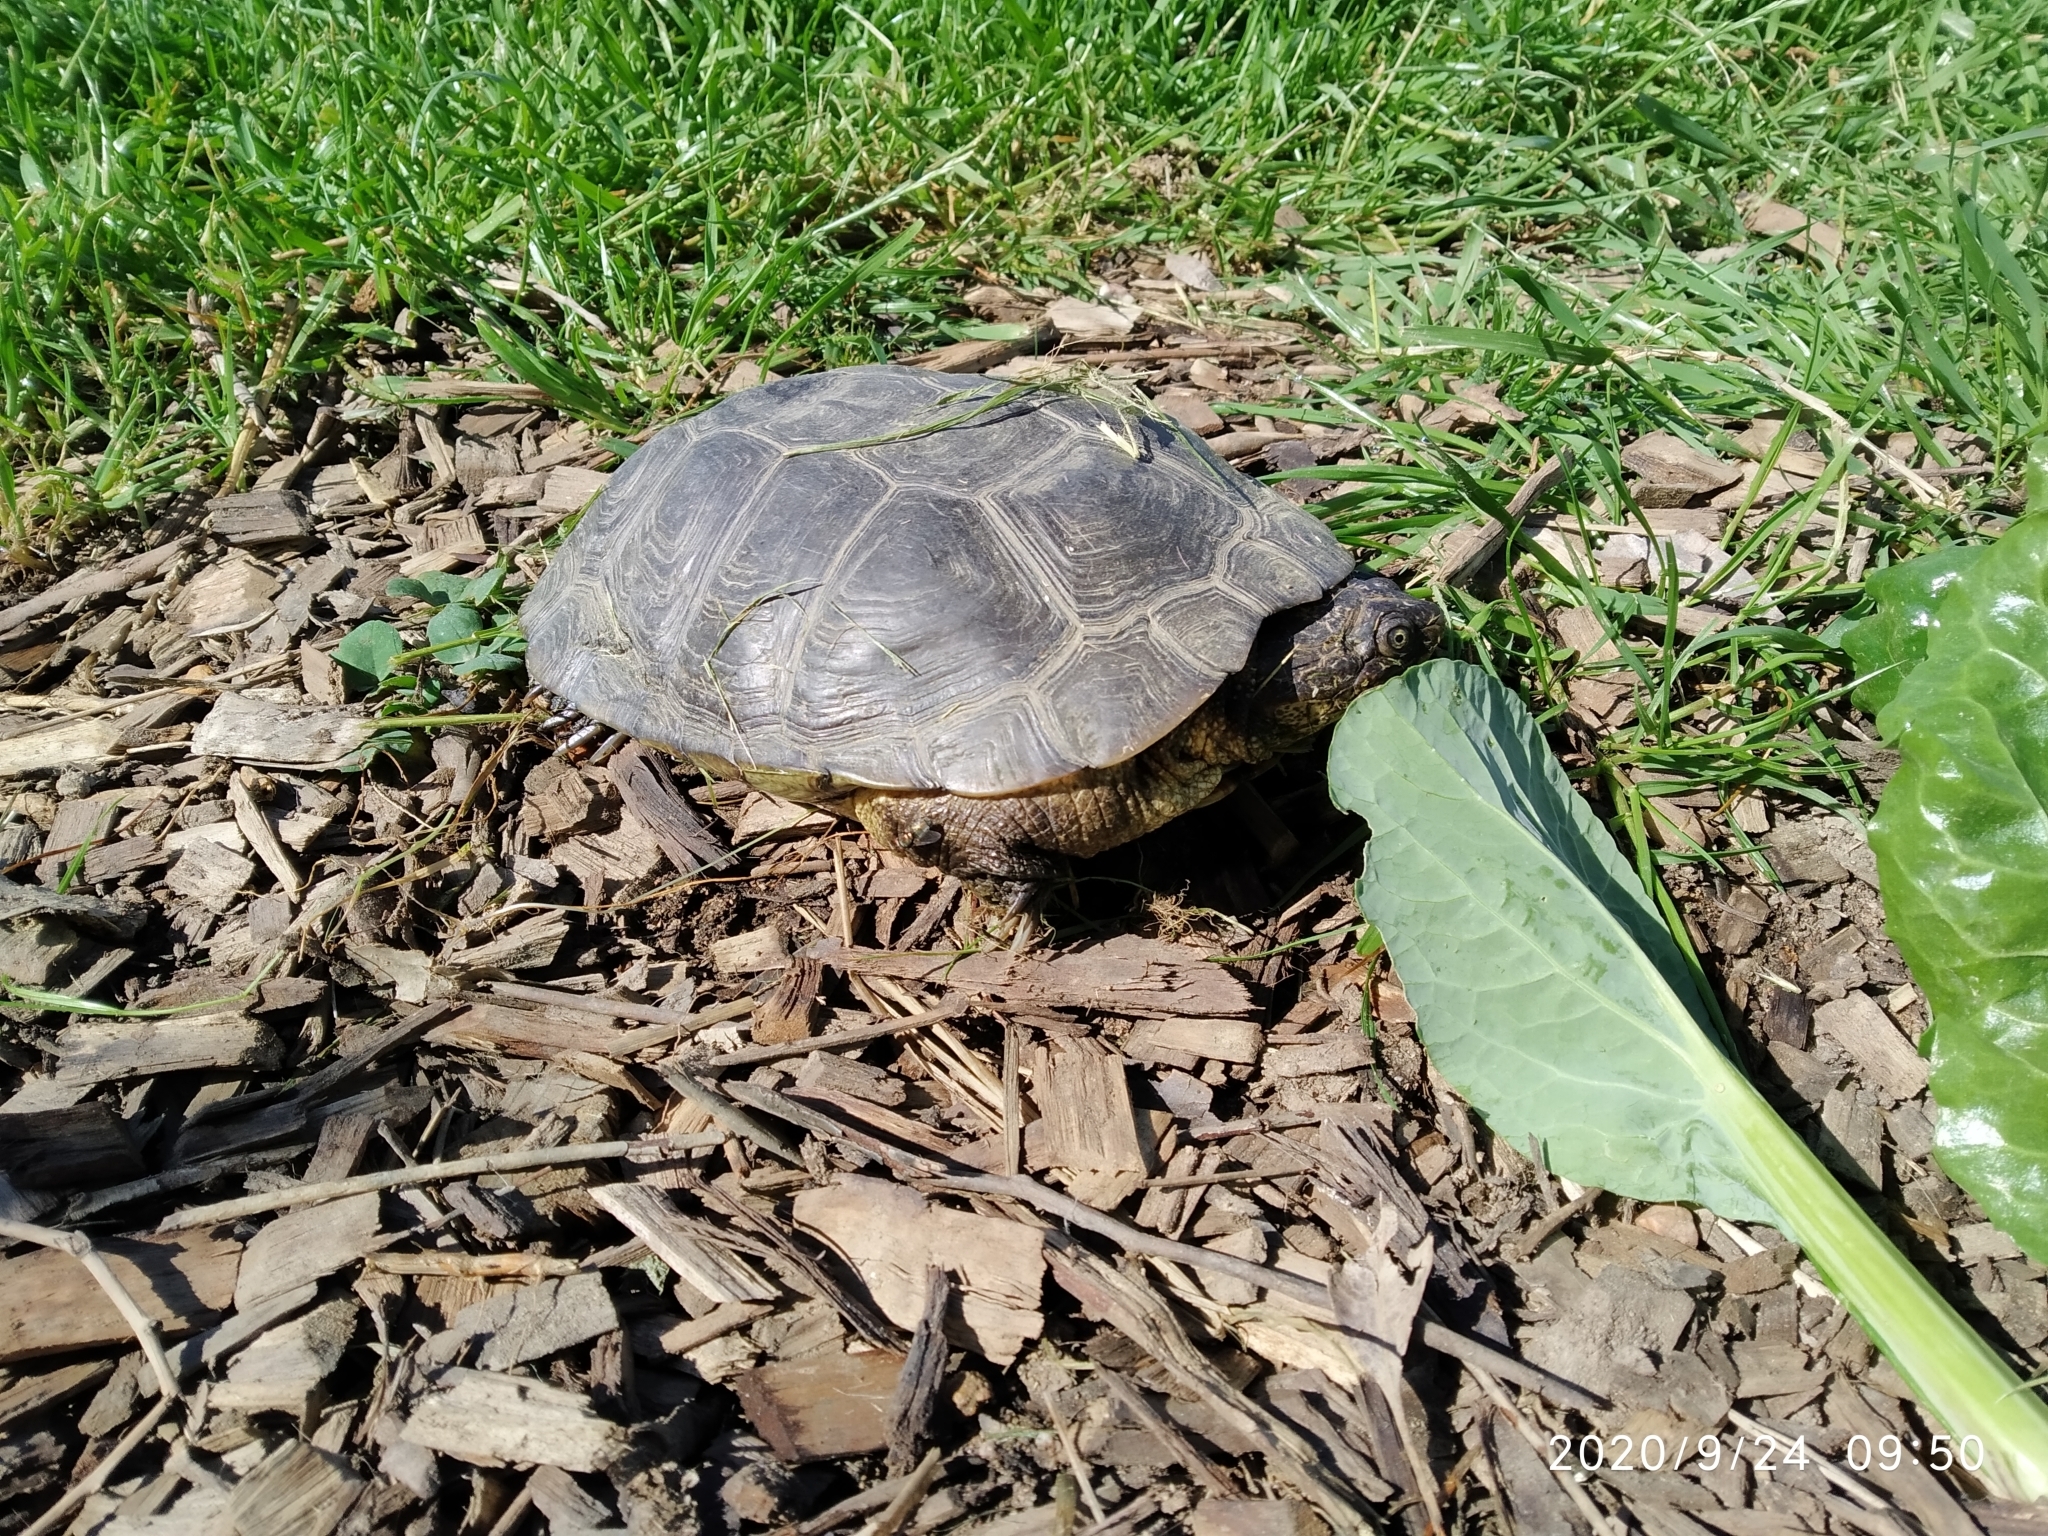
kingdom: Animalia
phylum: Chordata
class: Testudines
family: Pelomedusidae
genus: Pelomedusa
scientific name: Pelomedusa galeata
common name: South african helmeted terrapin
